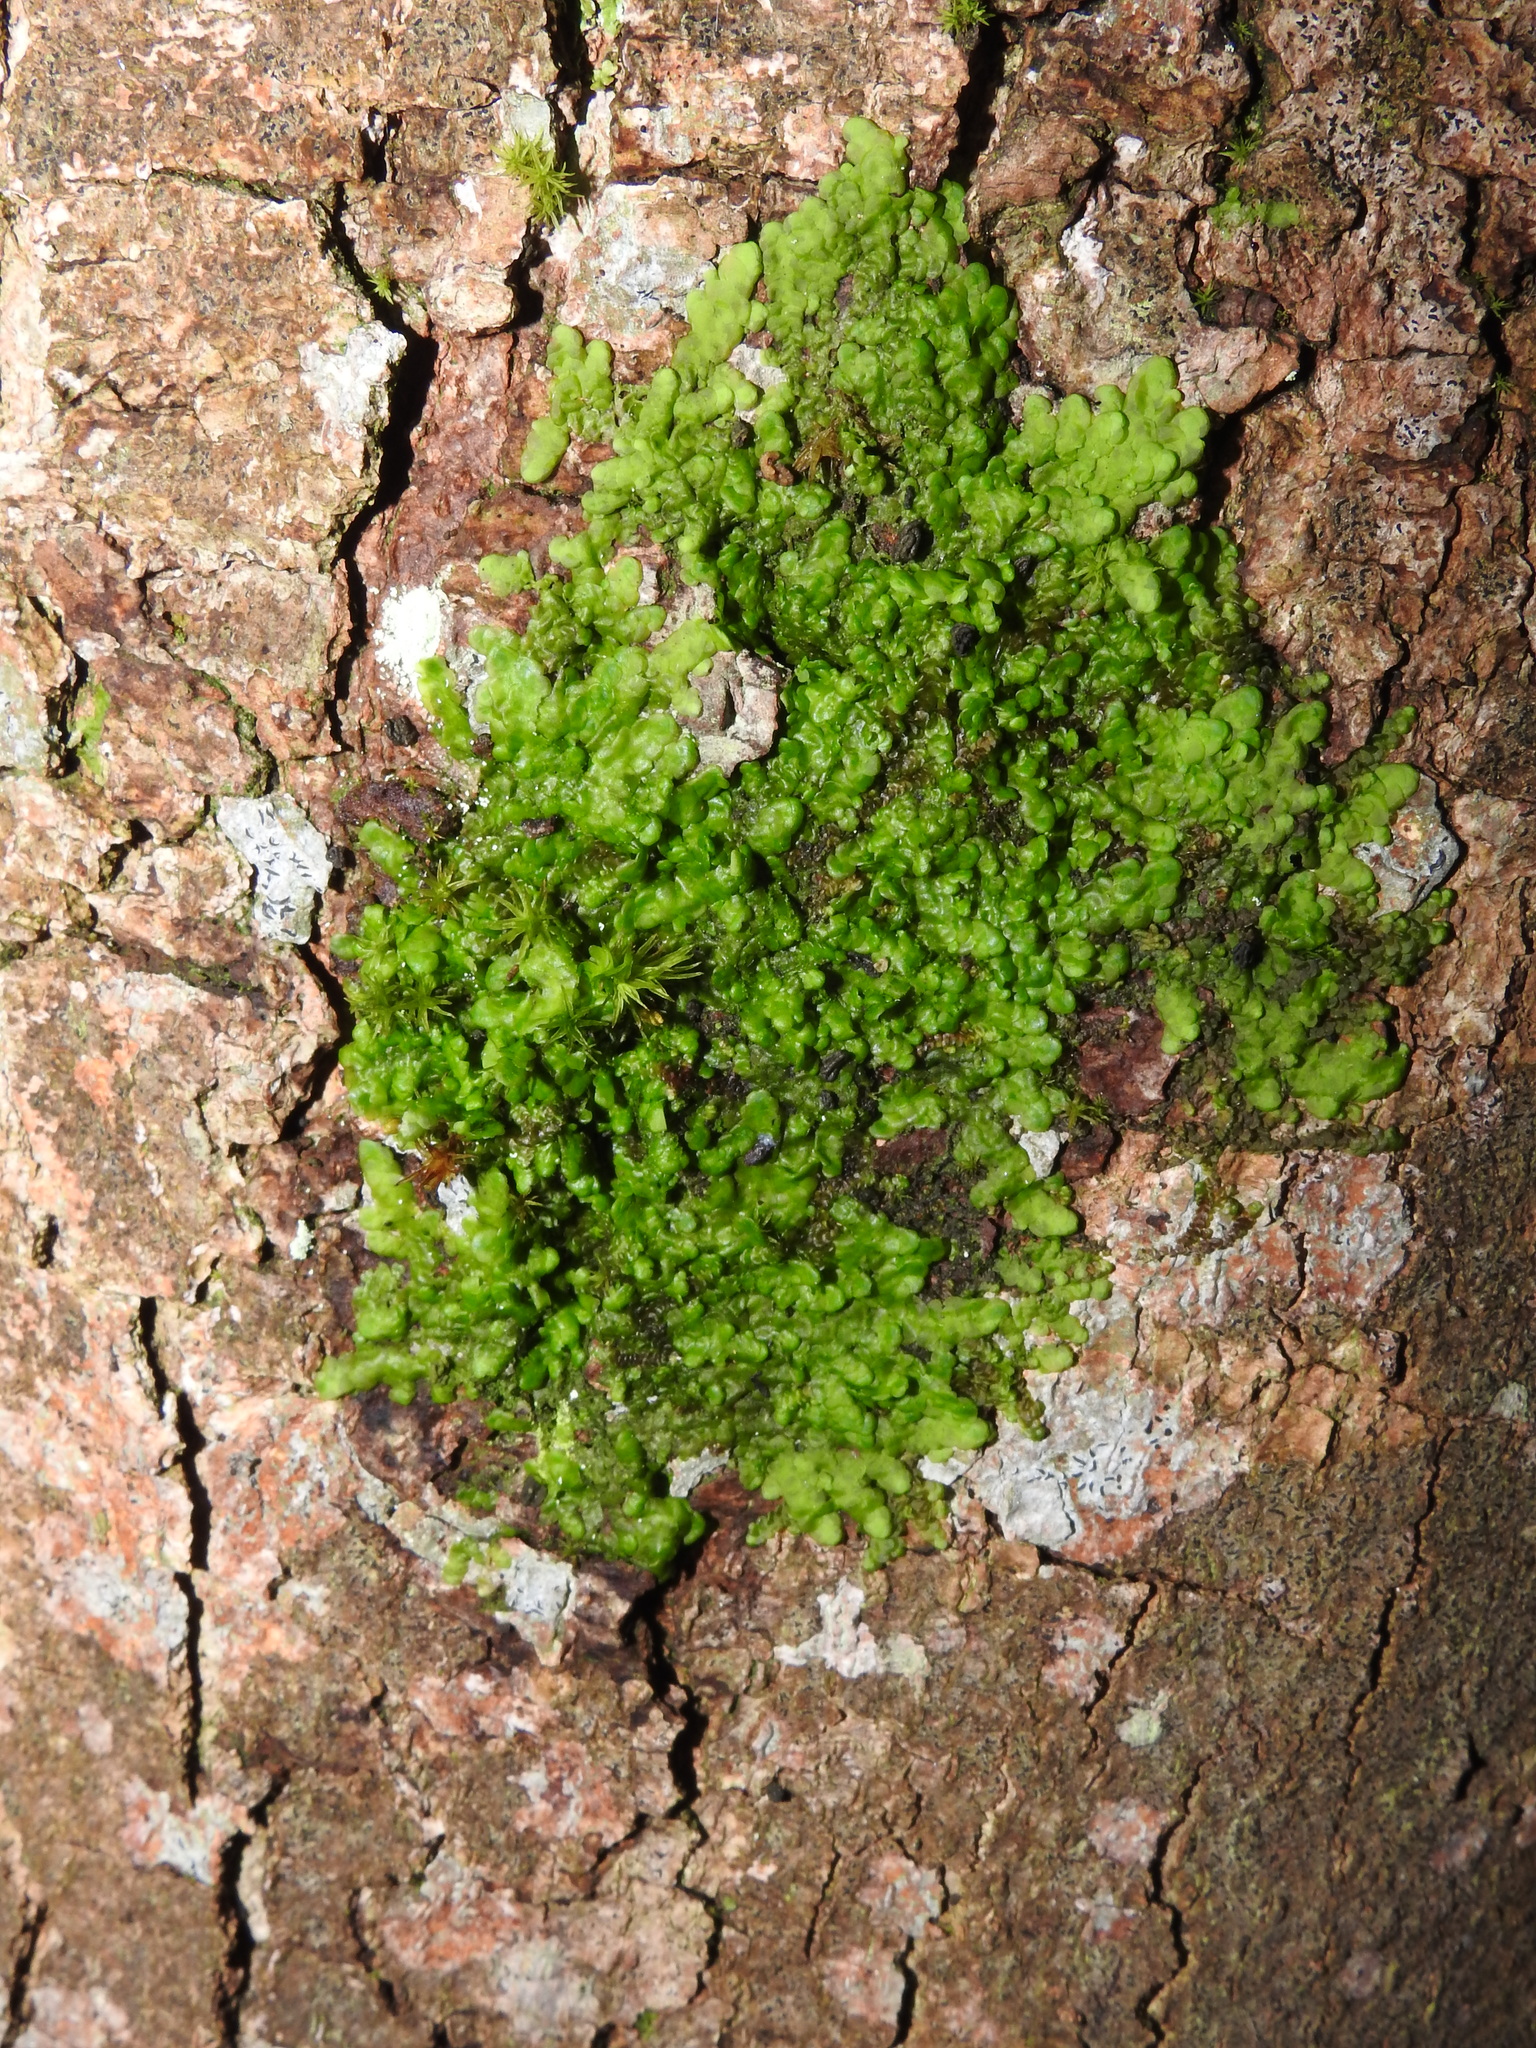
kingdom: Plantae
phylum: Marchantiophyta
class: Jungermanniopsida
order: Porellales
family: Radulaceae
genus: Radula
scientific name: Radula complanata
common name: Flat-leaved scalewort
